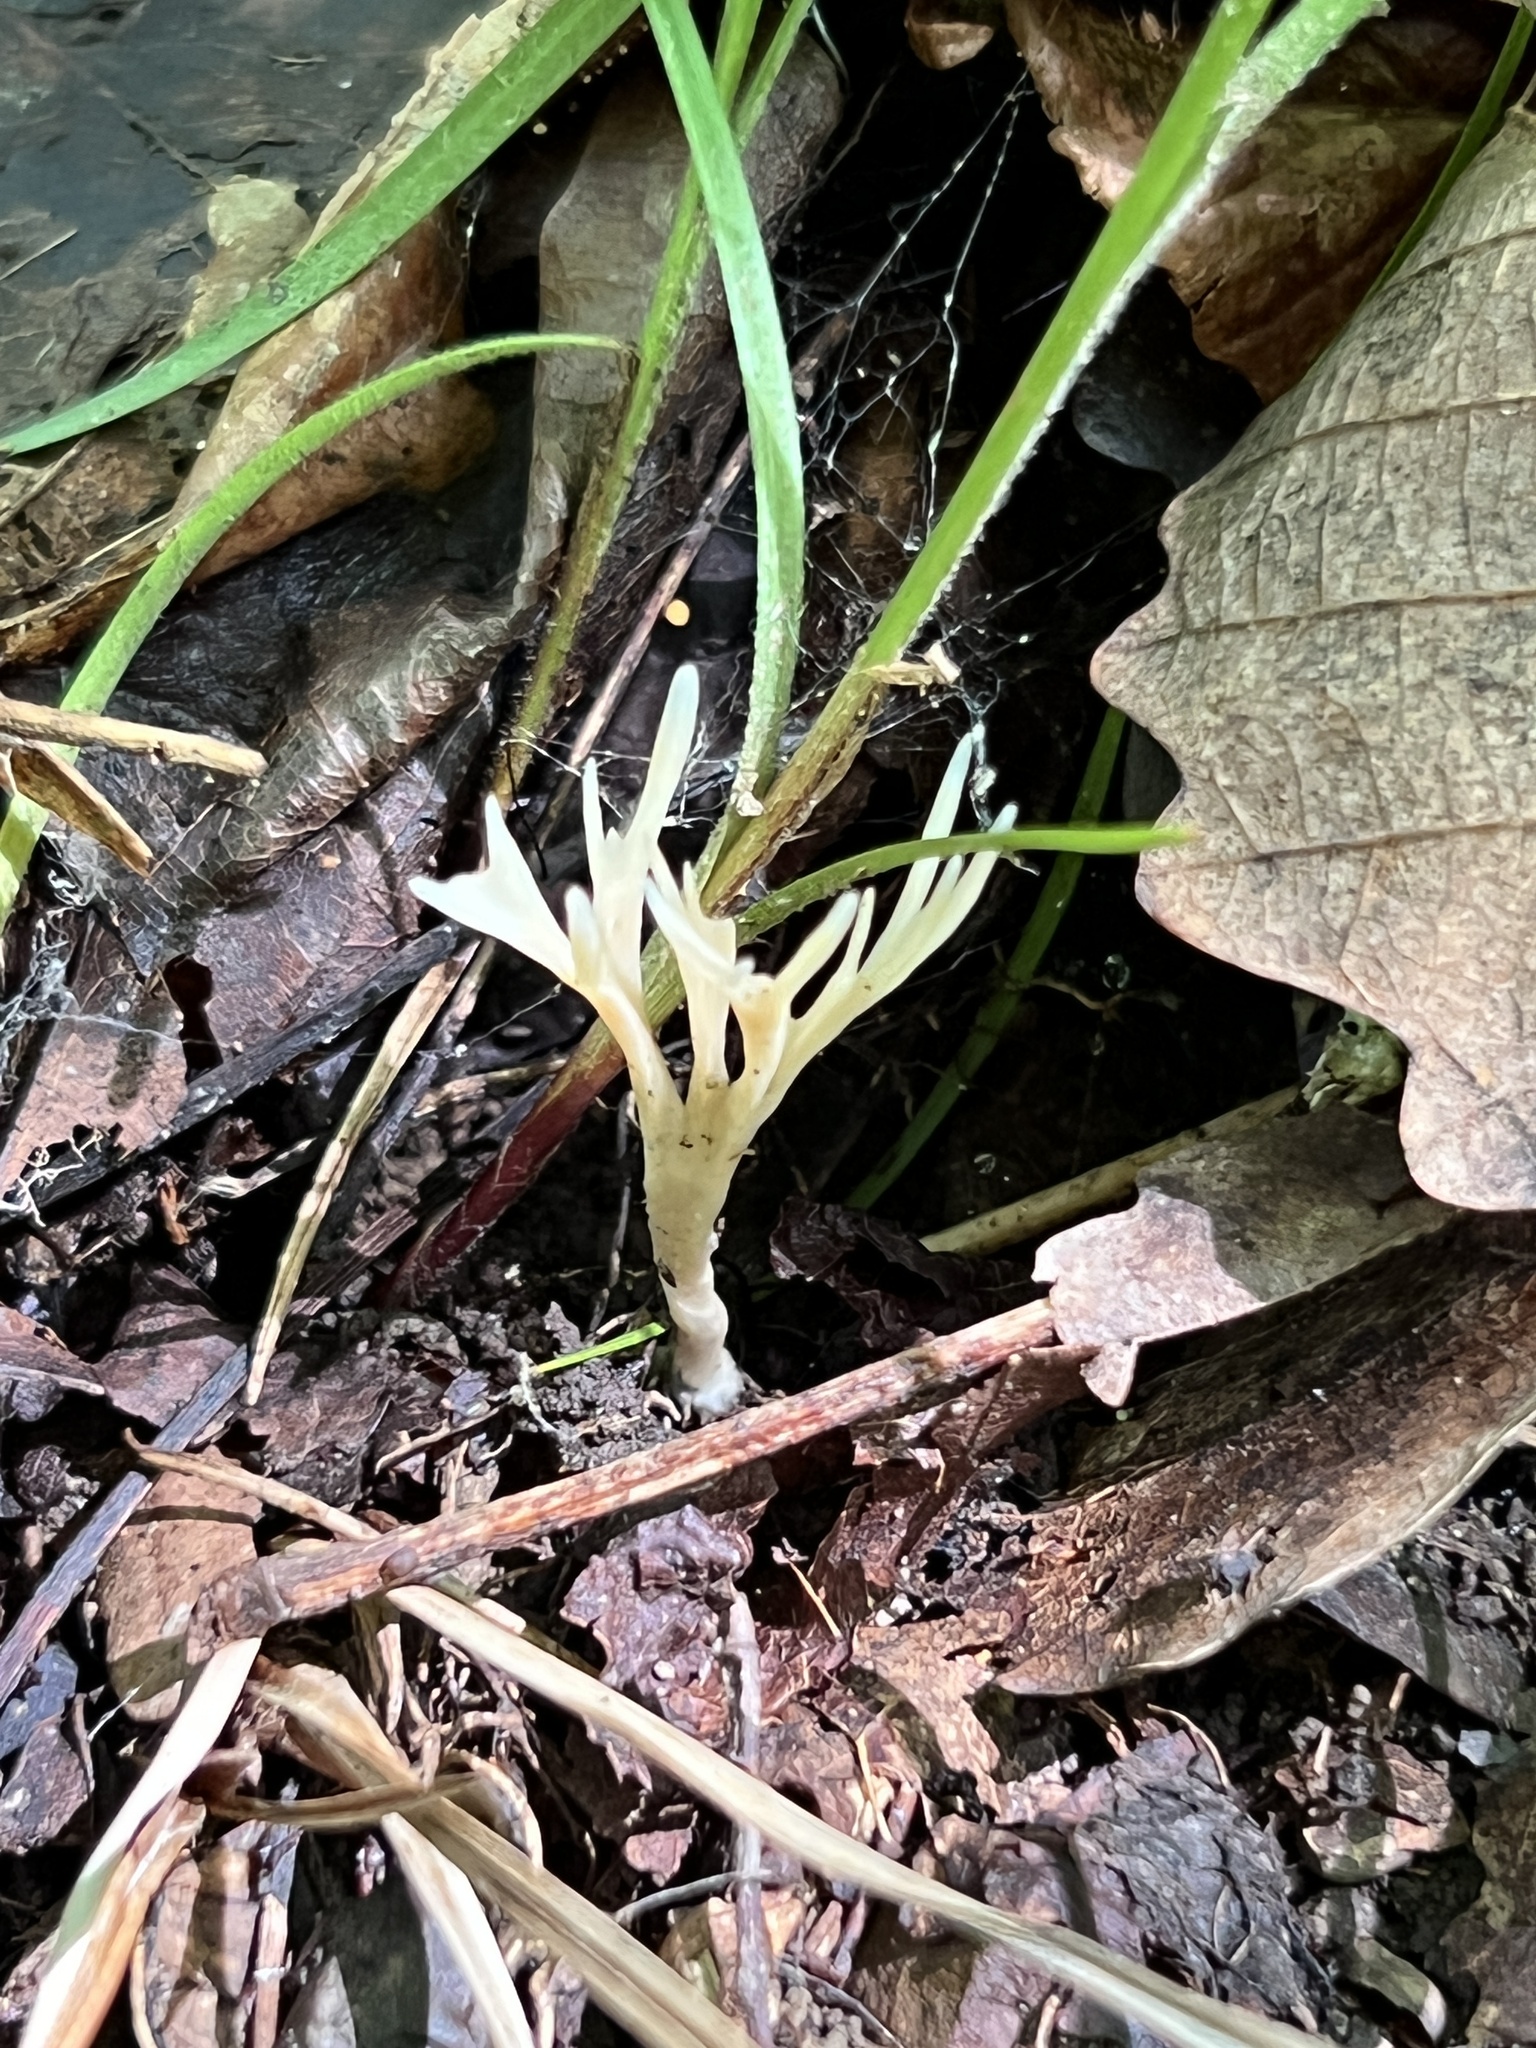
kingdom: Fungi
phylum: Basidiomycota
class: Agaricomycetes
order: Tremellodendropsidales
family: Tremellodendropsidaceae
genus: Tremellodendropsis
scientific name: Tremellodendropsis tuberosa
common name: Ashen coral
